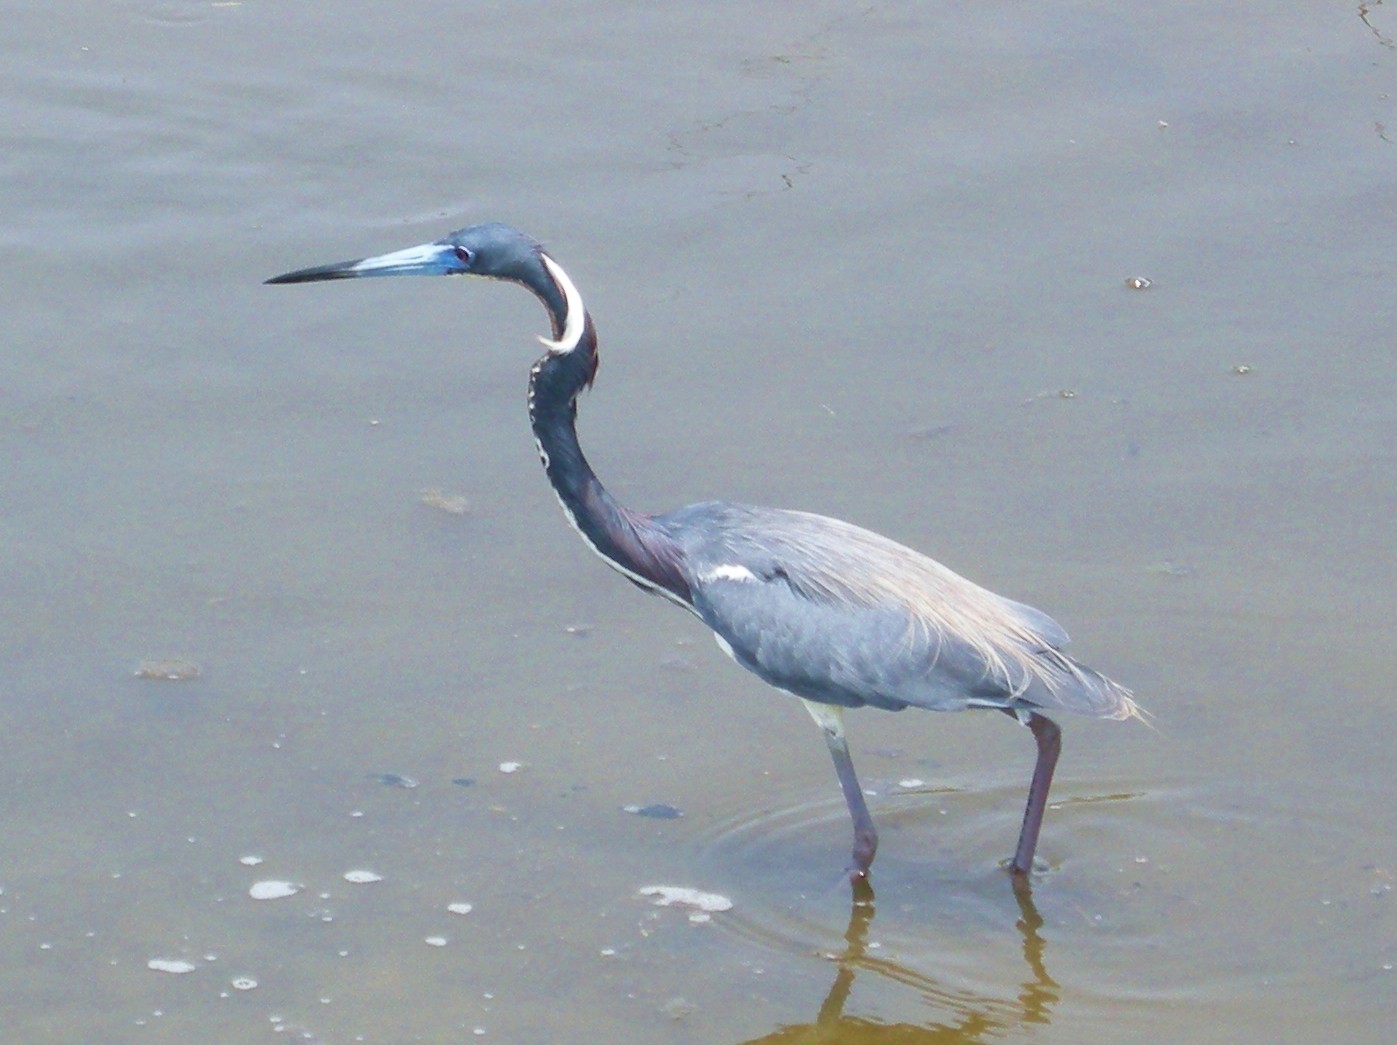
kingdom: Animalia
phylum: Chordata
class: Aves
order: Pelecaniformes
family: Ardeidae
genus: Egretta
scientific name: Egretta tricolor
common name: Tricolored heron
